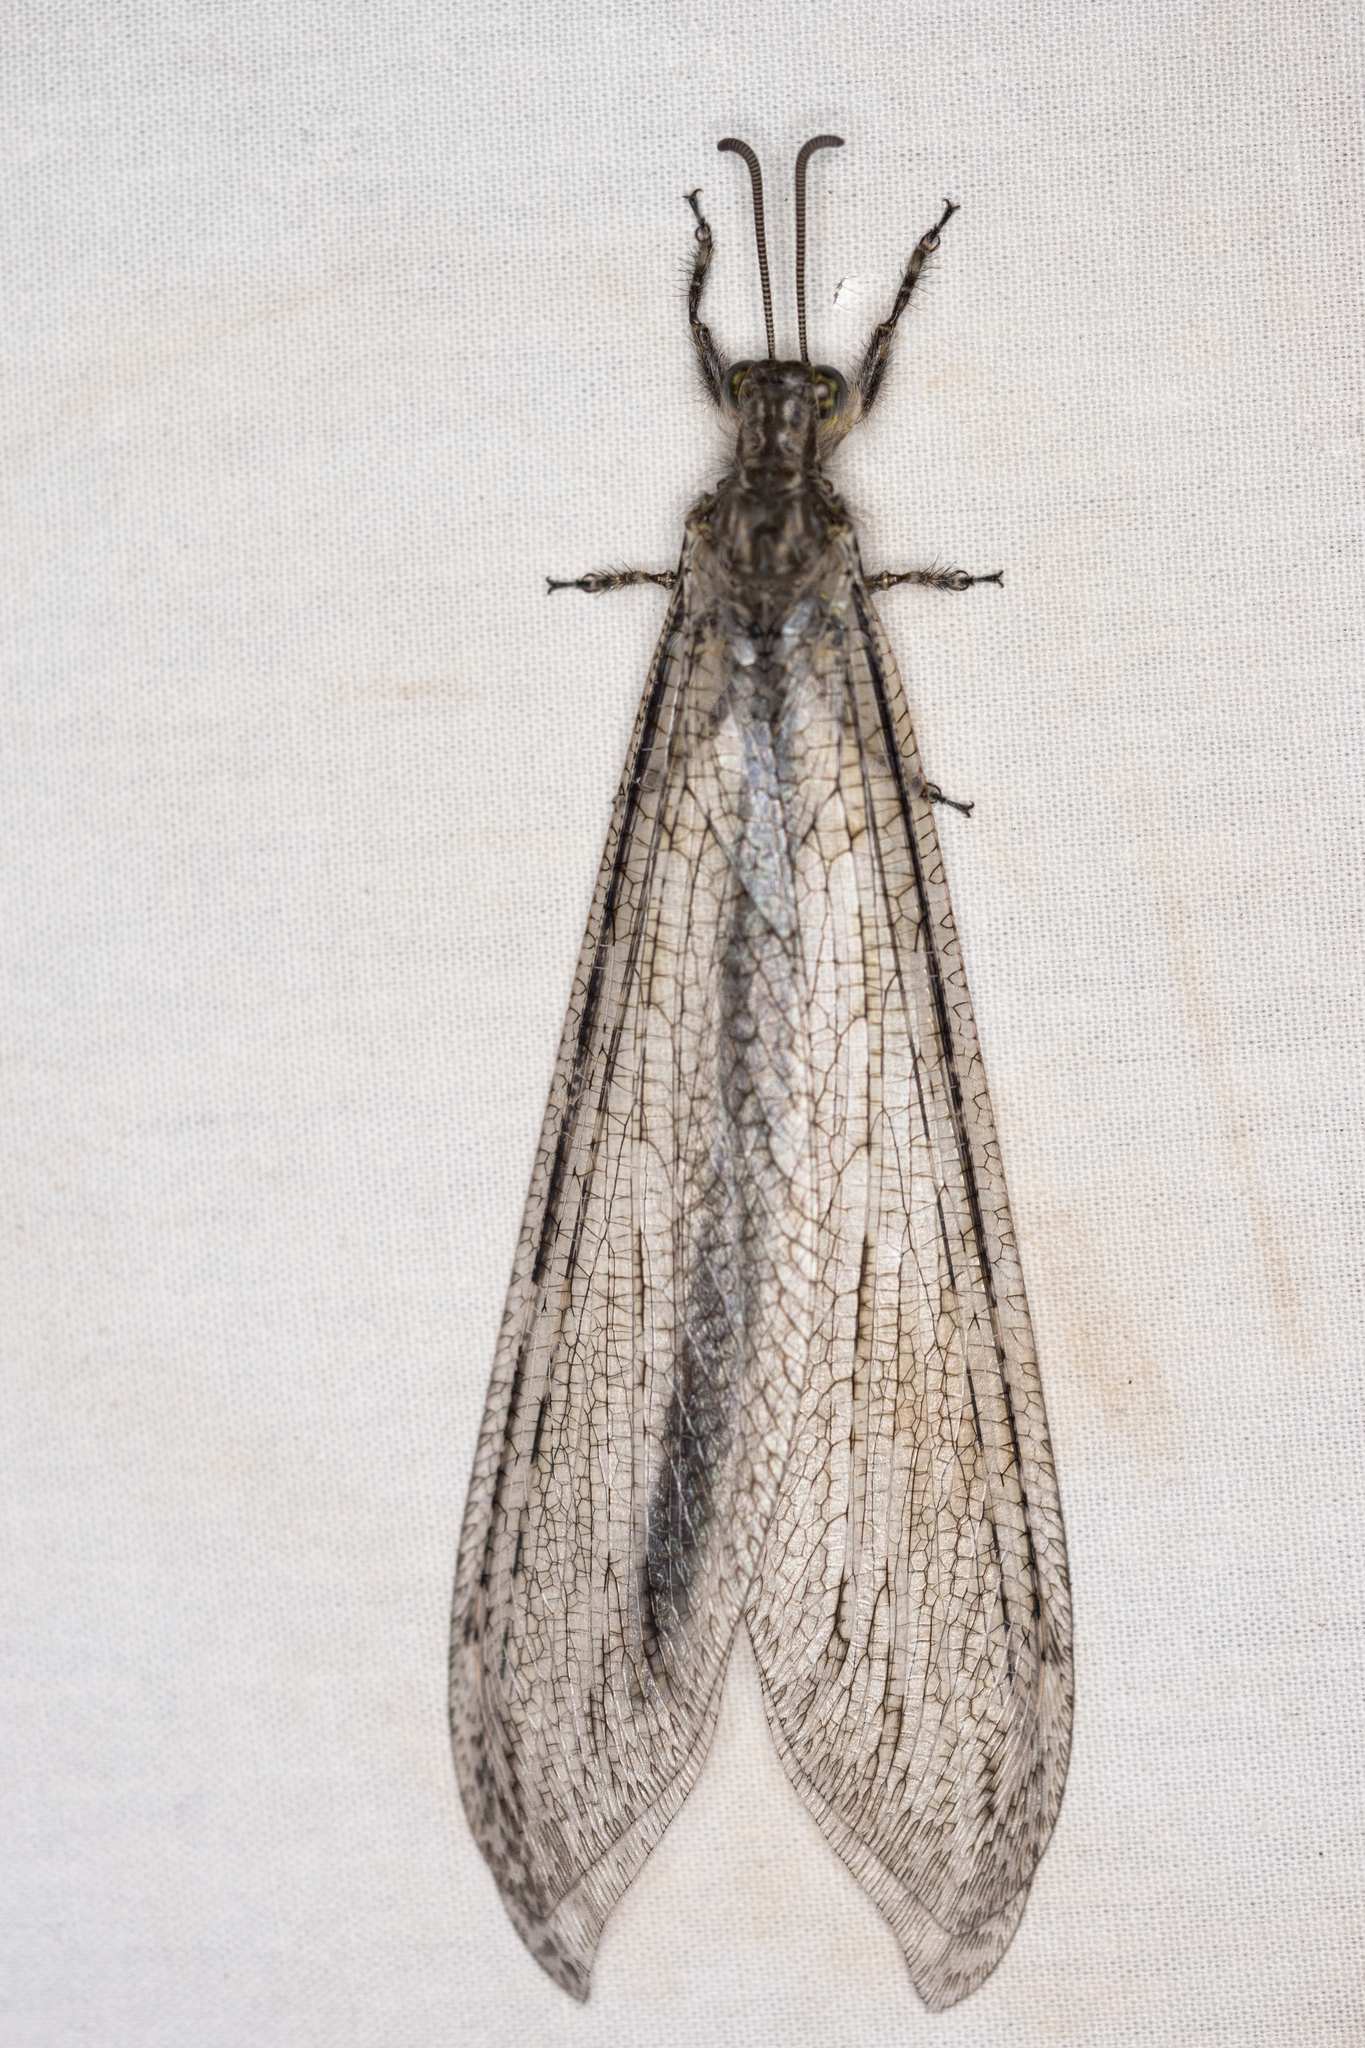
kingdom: Animalia
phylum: Arthropoda
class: Insecta
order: Neuroptera
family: Myrmeleontidae
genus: Vella
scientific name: Vella fallax
